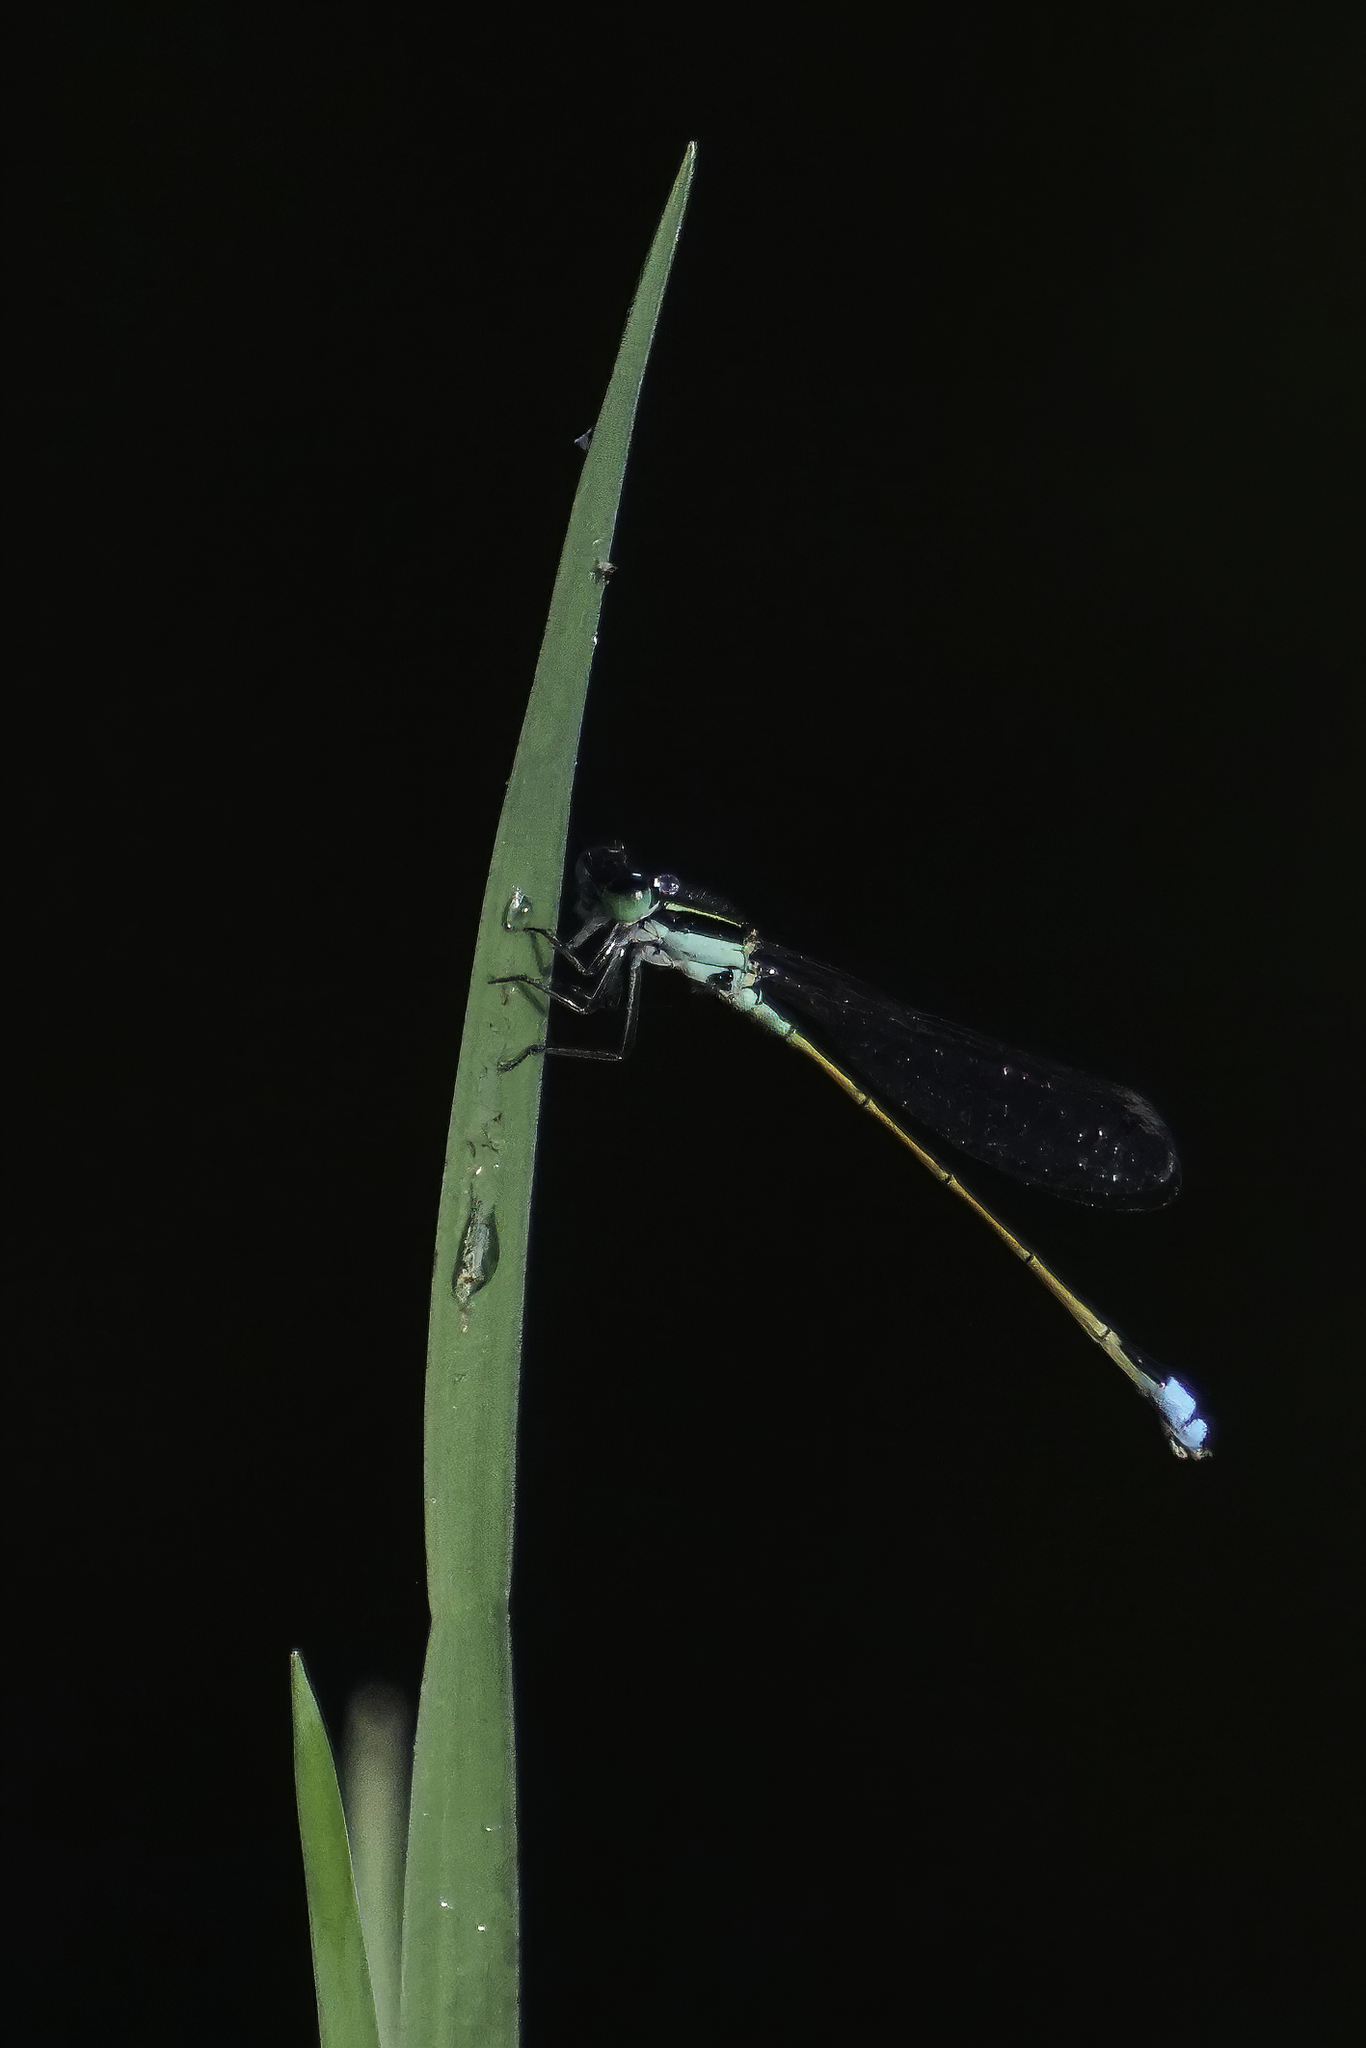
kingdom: Animalia
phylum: Arthropoda
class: Insecta
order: Odonata
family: Coenagrionidae
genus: Ischnura
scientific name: Ischnura ramburii
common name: Rambur's forktail
